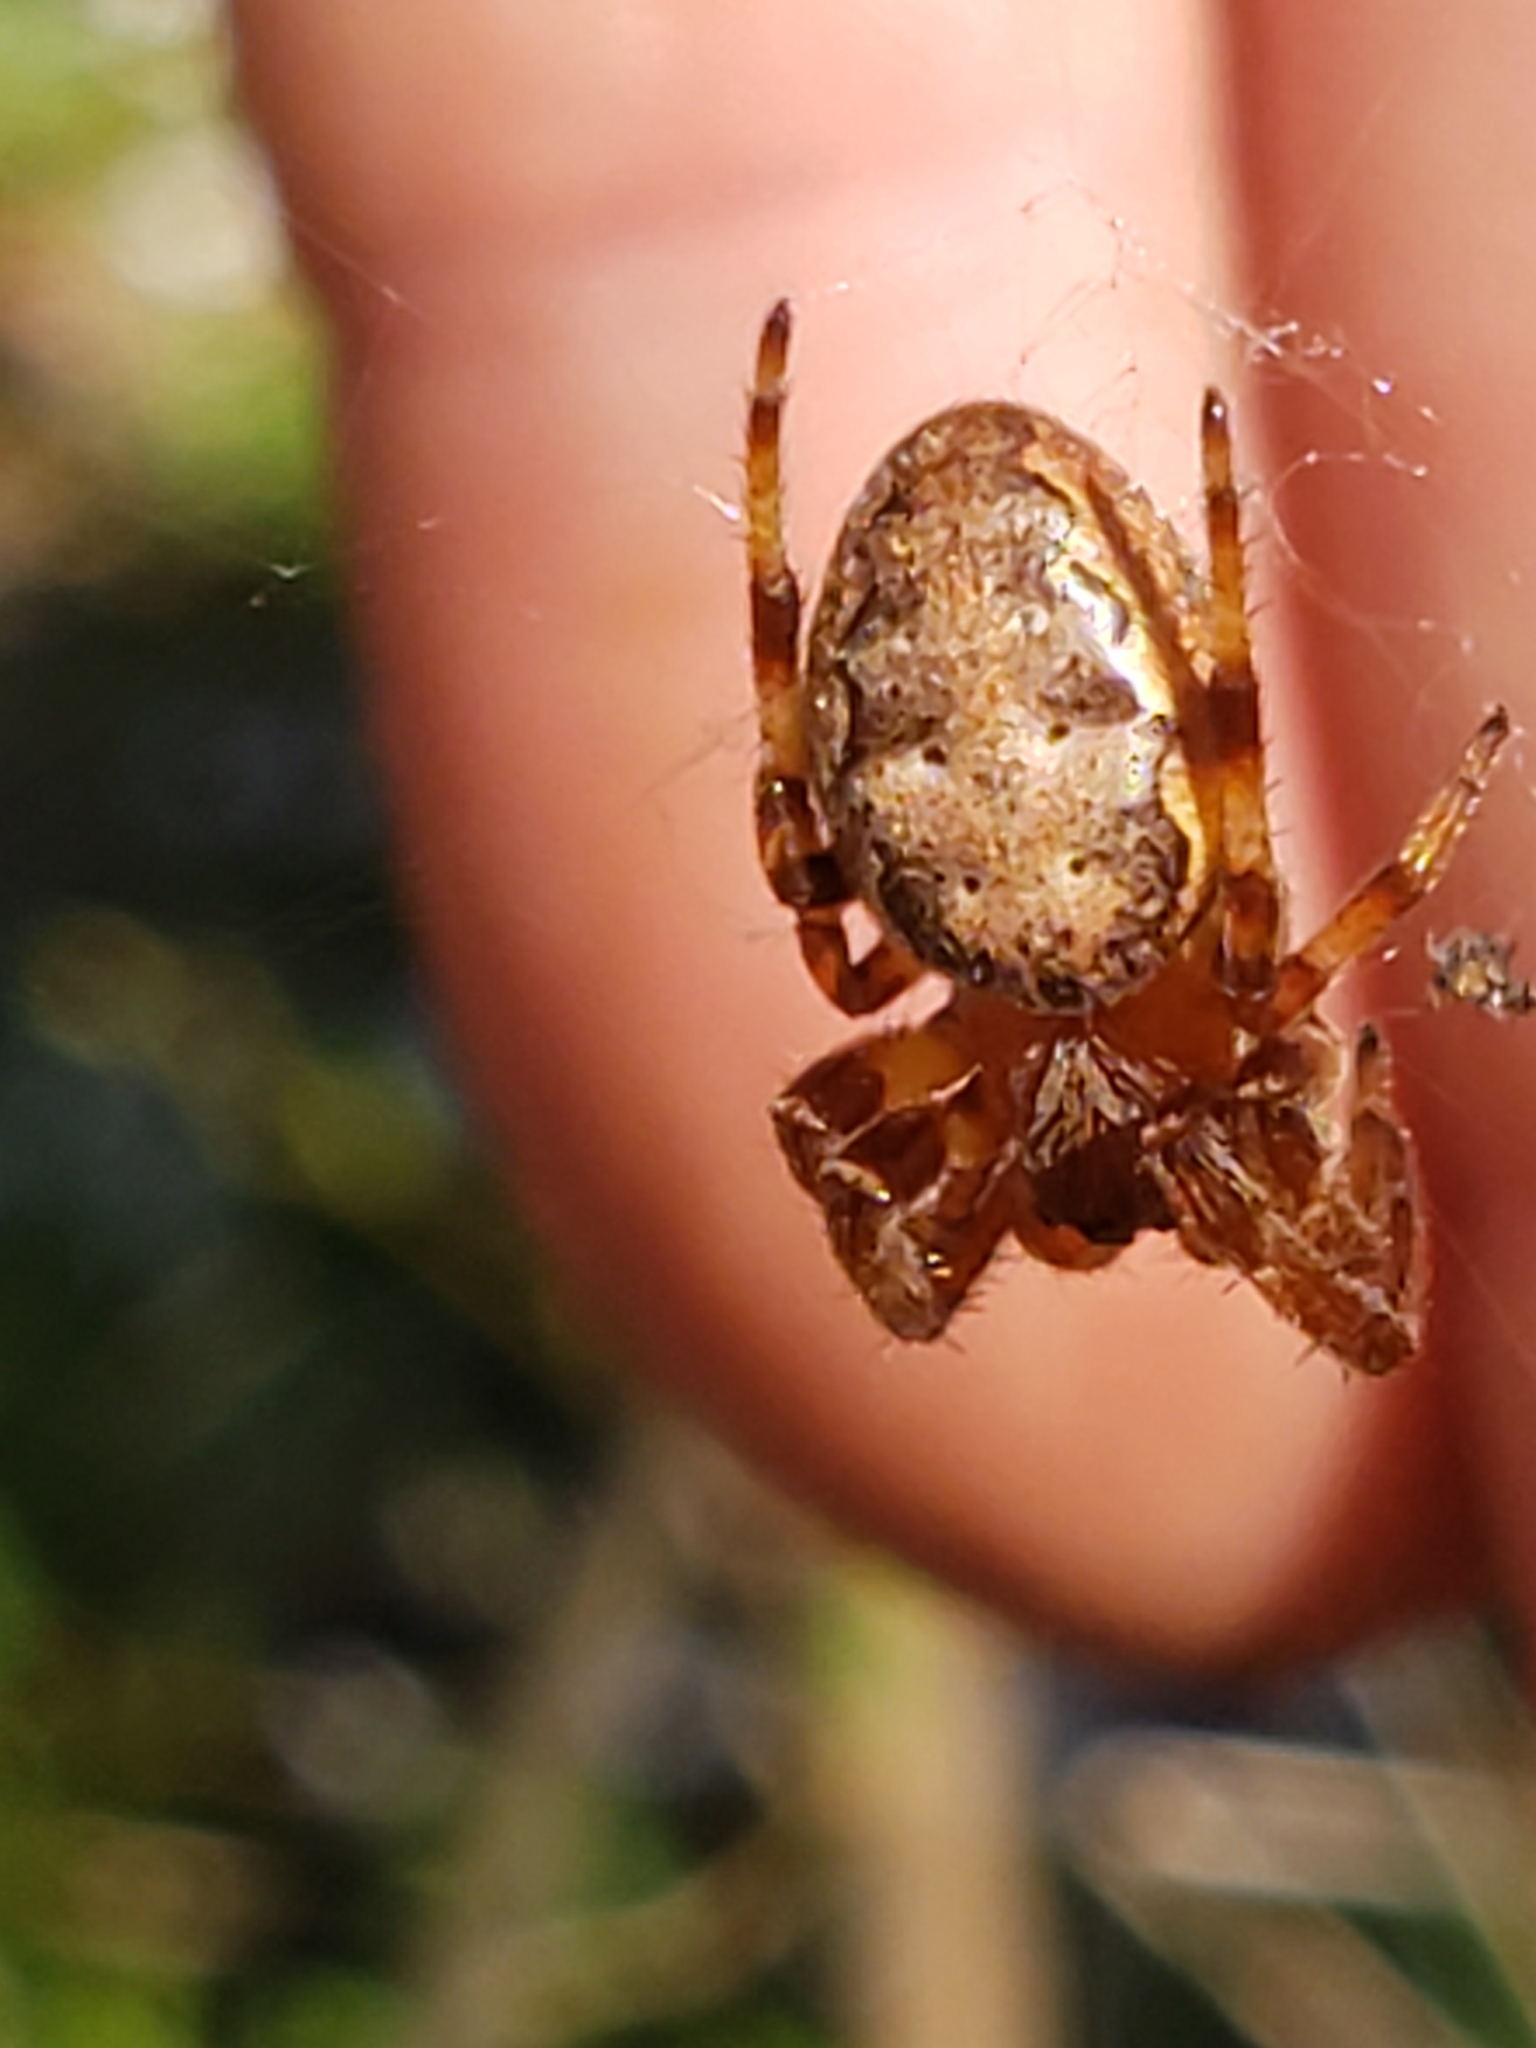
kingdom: Animalia
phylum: Arthropoda
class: Arachnida
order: Araneae
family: Araneidae
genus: Larinioides
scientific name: Larinioides cornutus
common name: Furrow orbweaver
